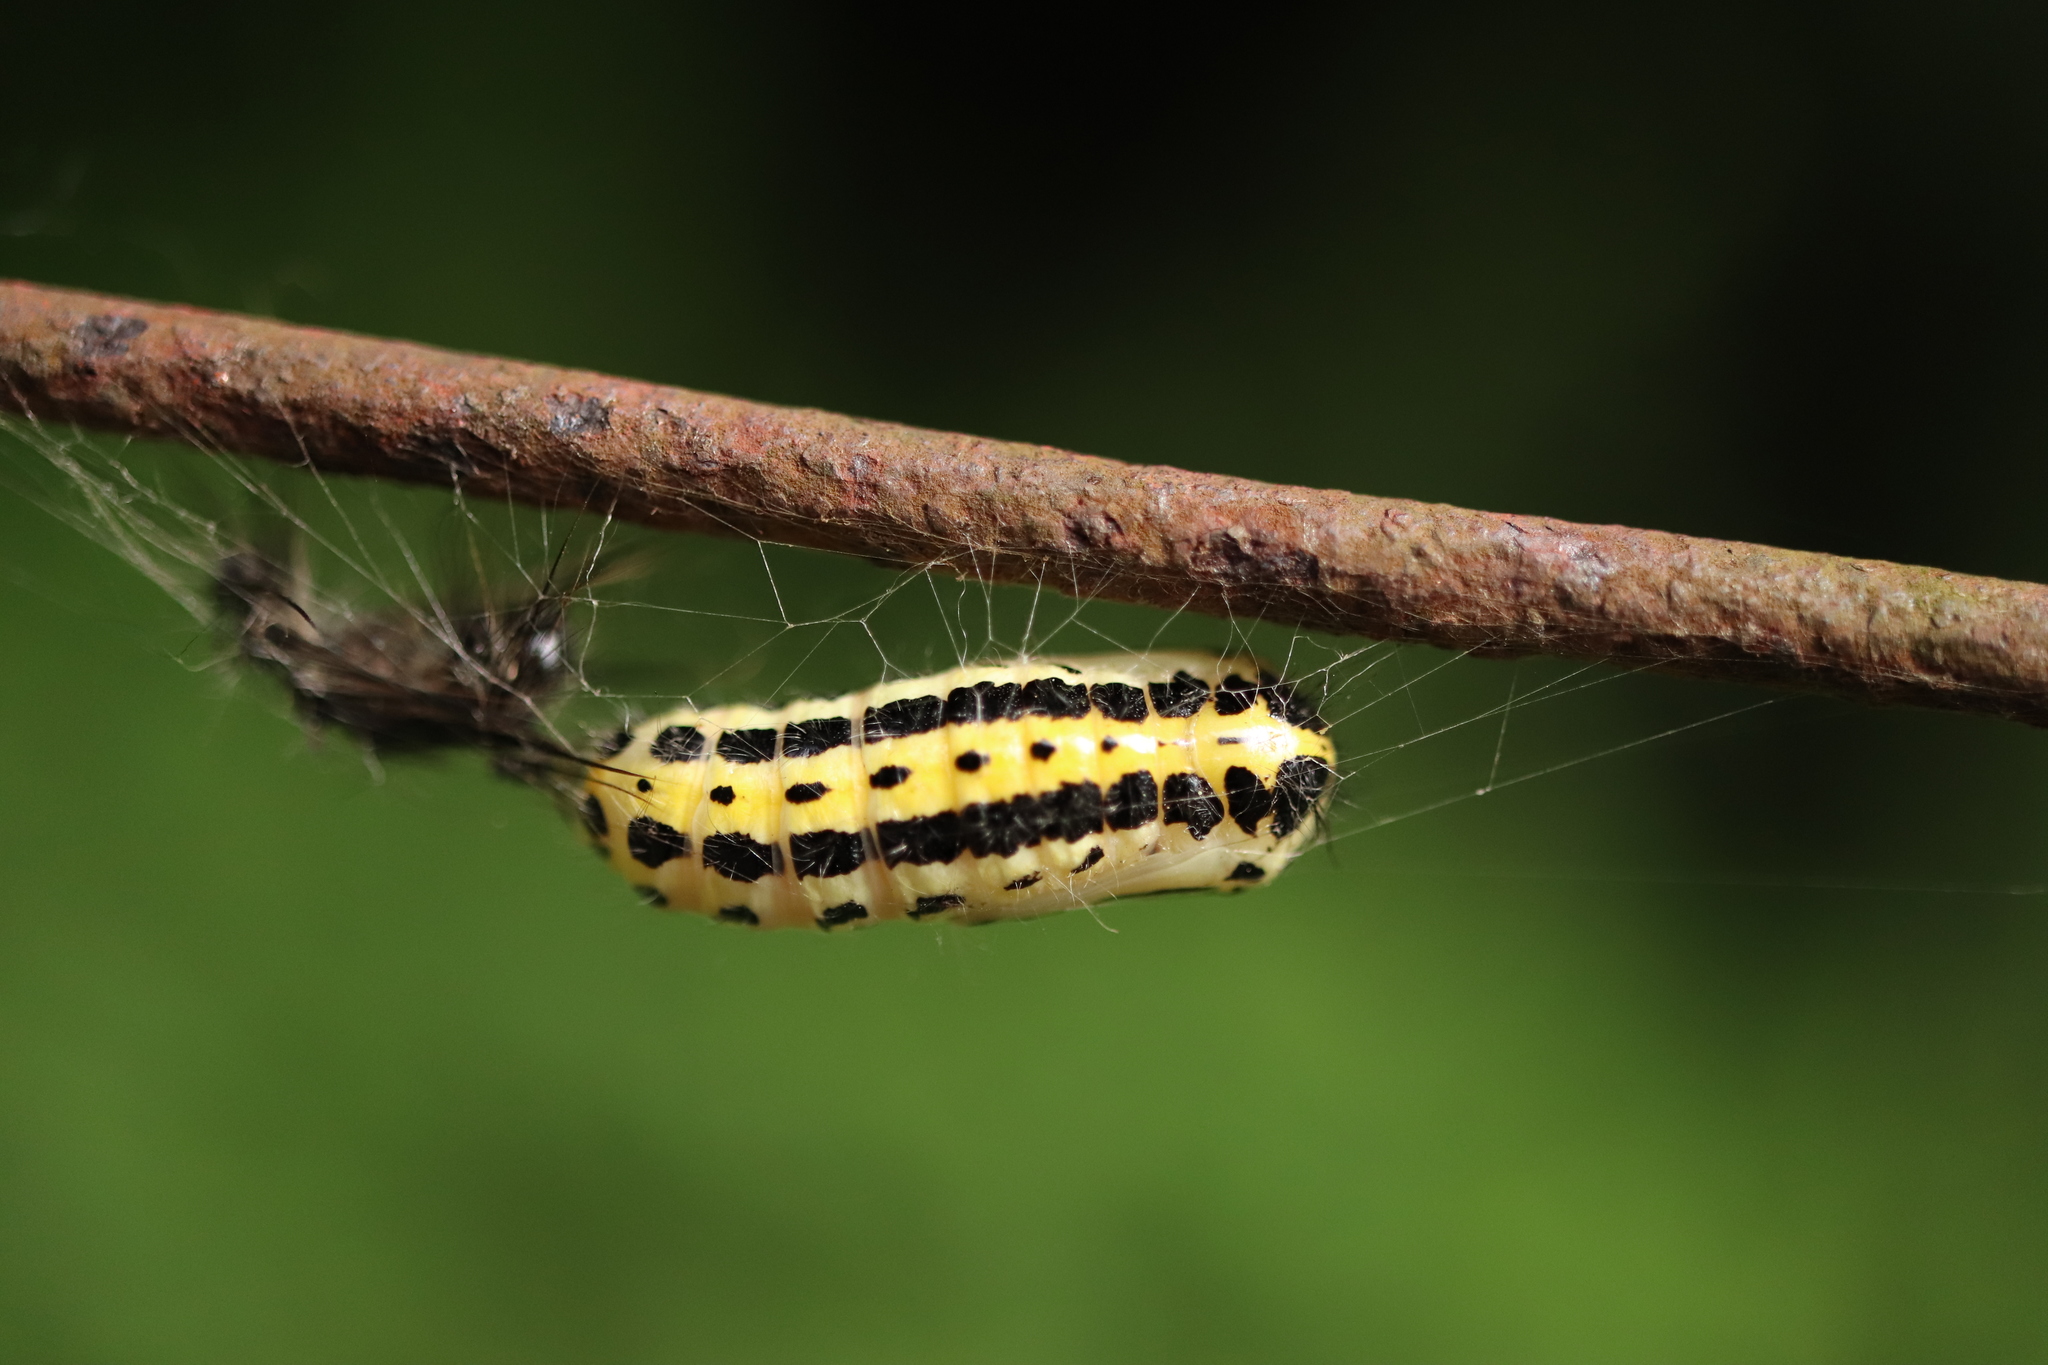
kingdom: Animalia
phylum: Arthropoda
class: Insecta
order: Lepidoptera
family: Erebidae
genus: Ivela
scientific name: Ivela auripes
